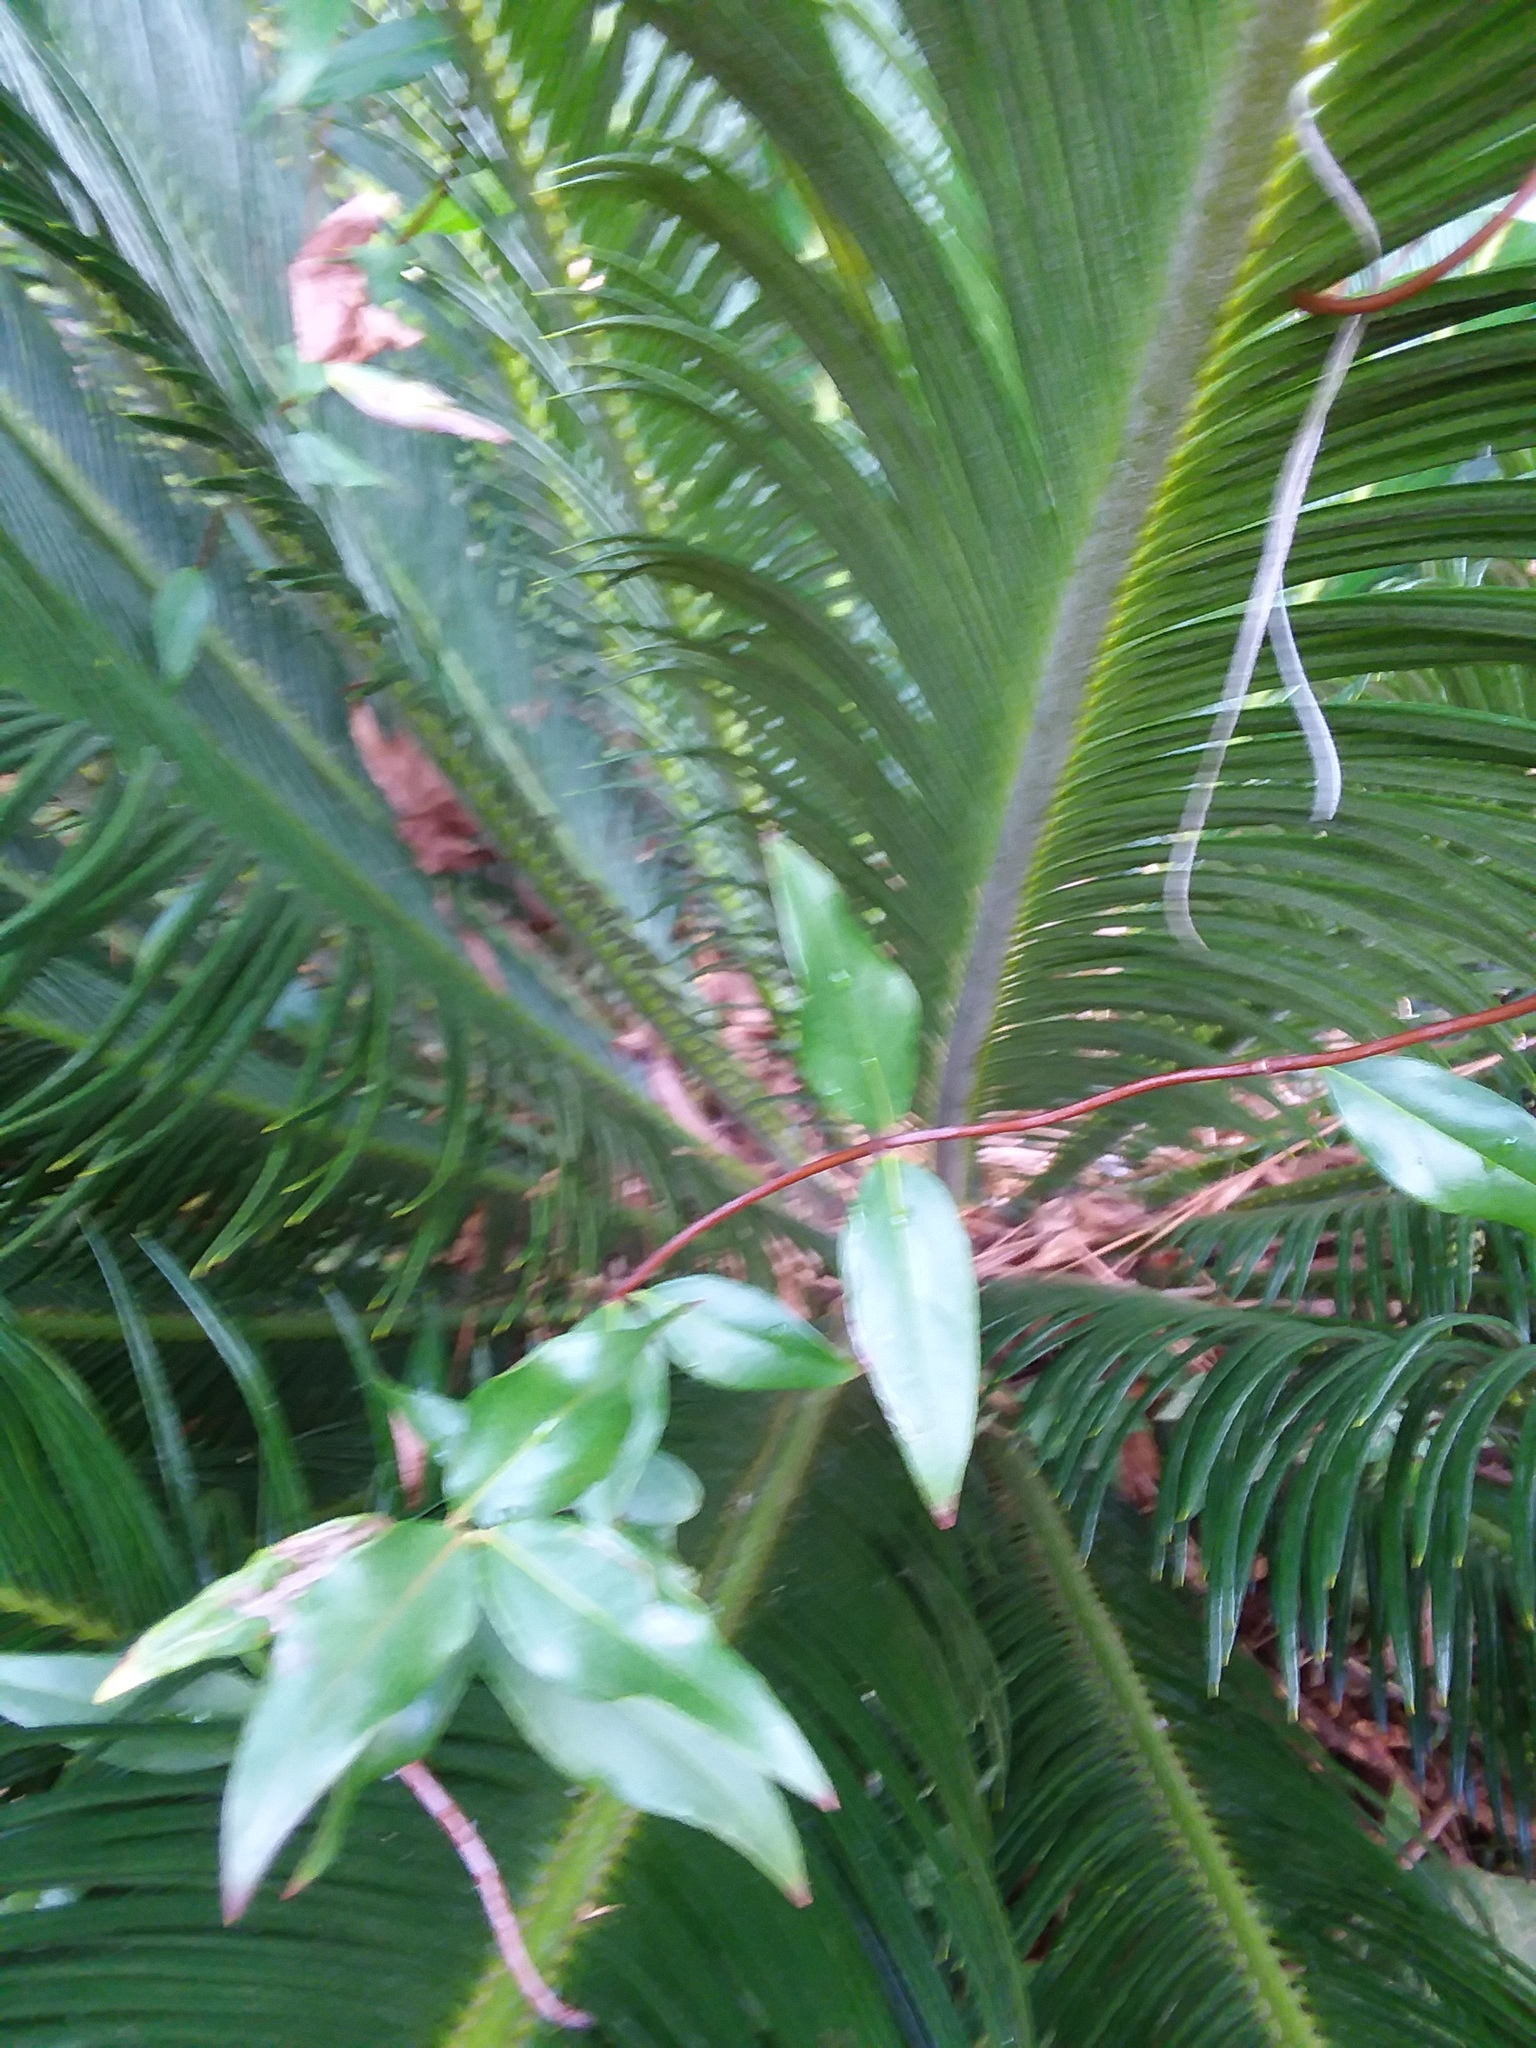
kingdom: Plantae
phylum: Tracheophyta
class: Magnoliopsida
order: Gentianales
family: Gelsemiaceae
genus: Gelsemium
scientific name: Gelsemium sempervirens
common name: Carolina-jasmine
